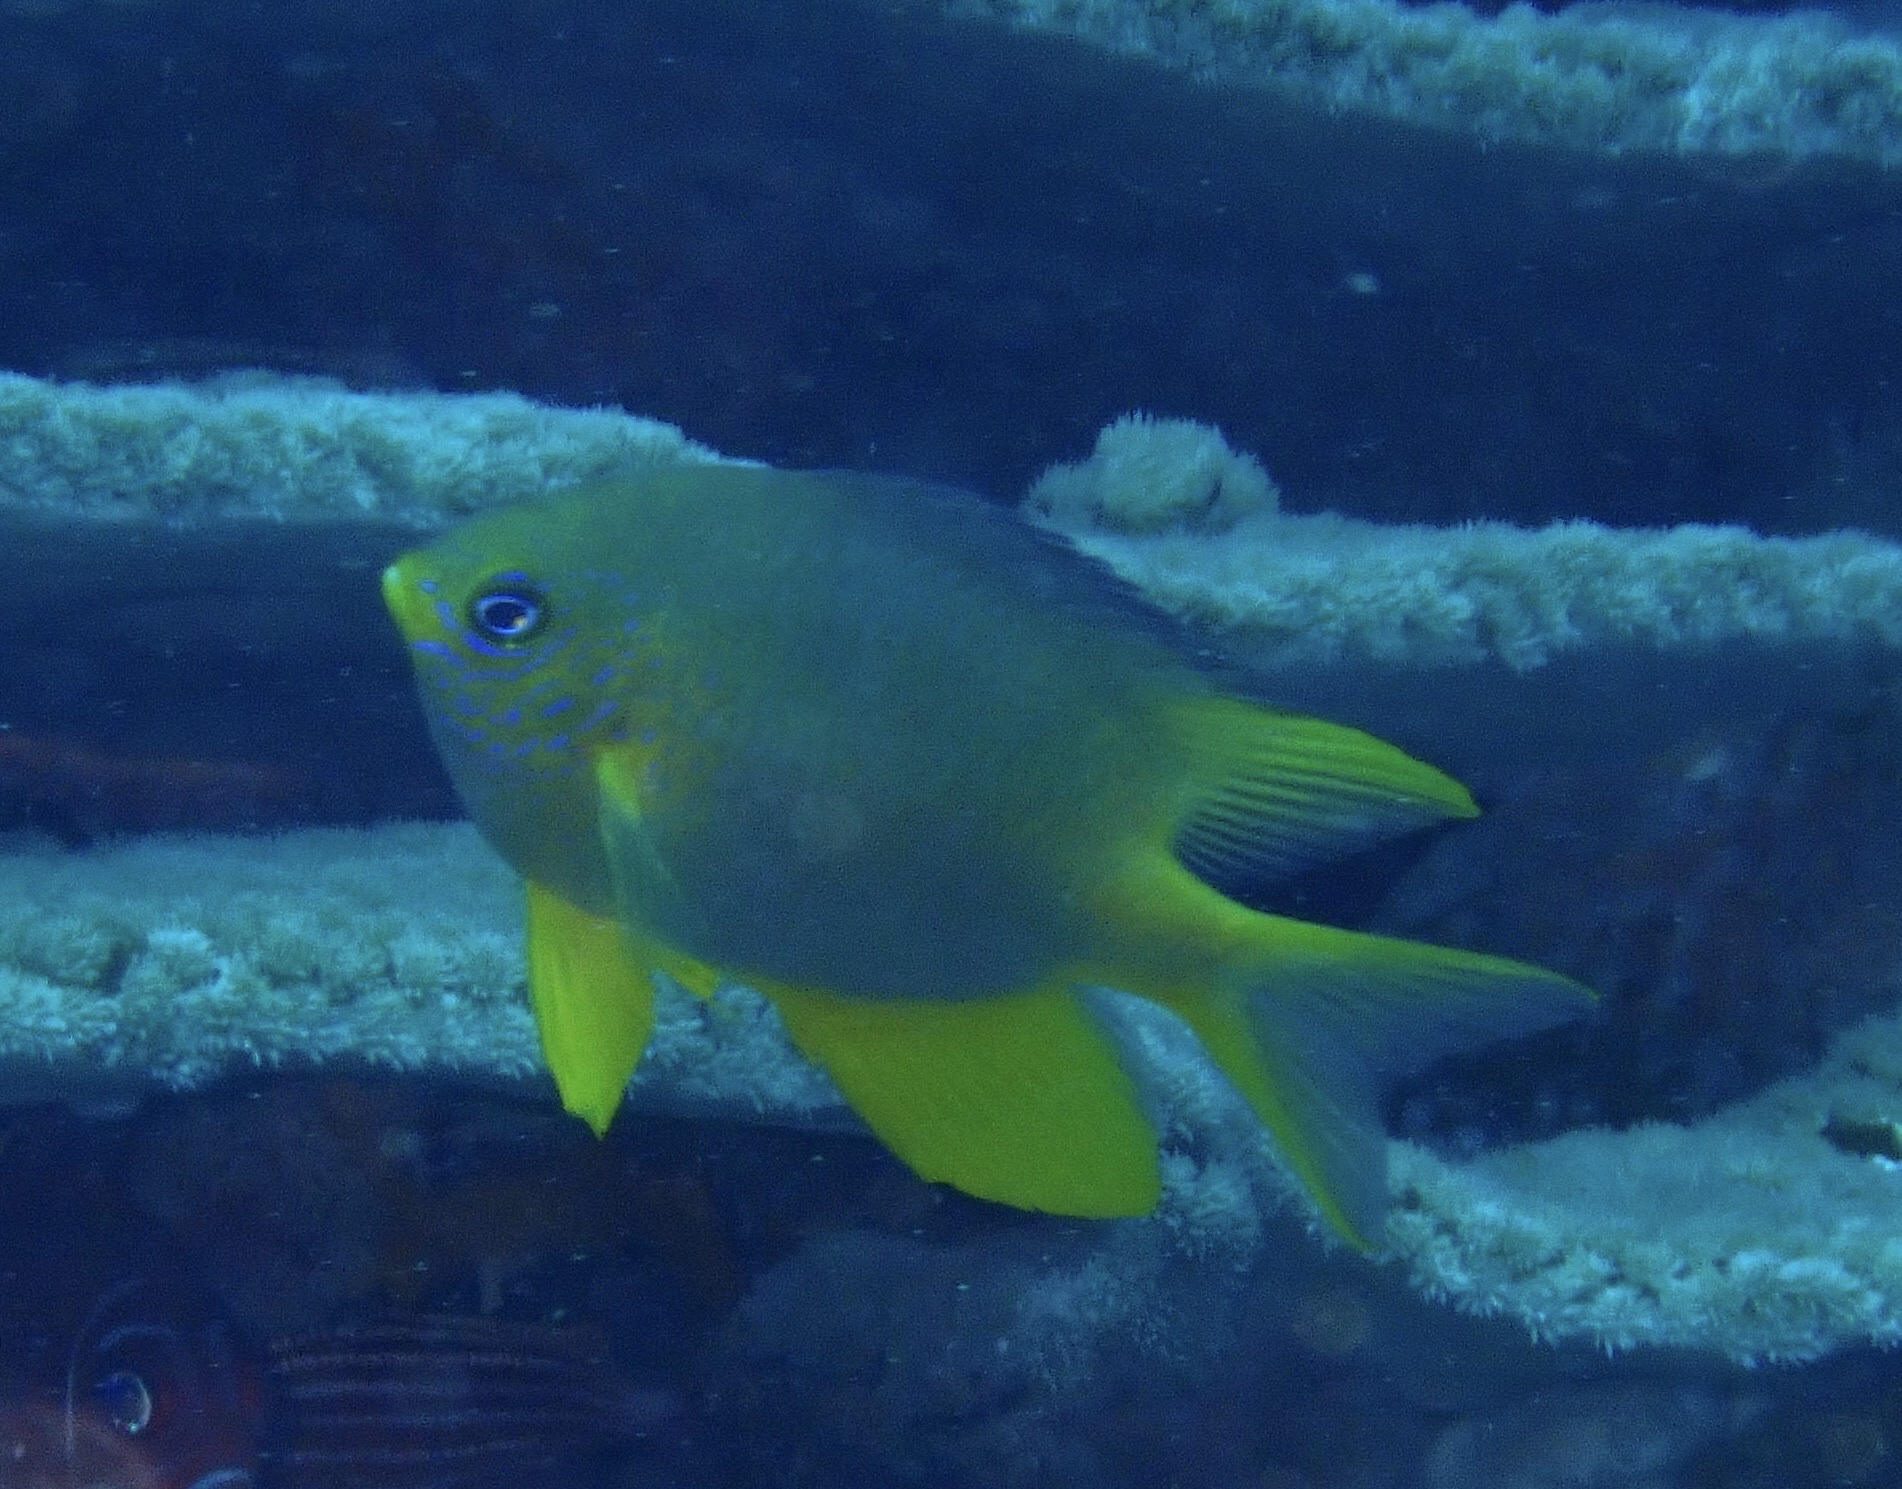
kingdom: Animalia
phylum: Chordata
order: Perciformes
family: Pomacentridae
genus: Amblyglyphidodon
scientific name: Amblyglyphidodon aureus
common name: Golden damsel
